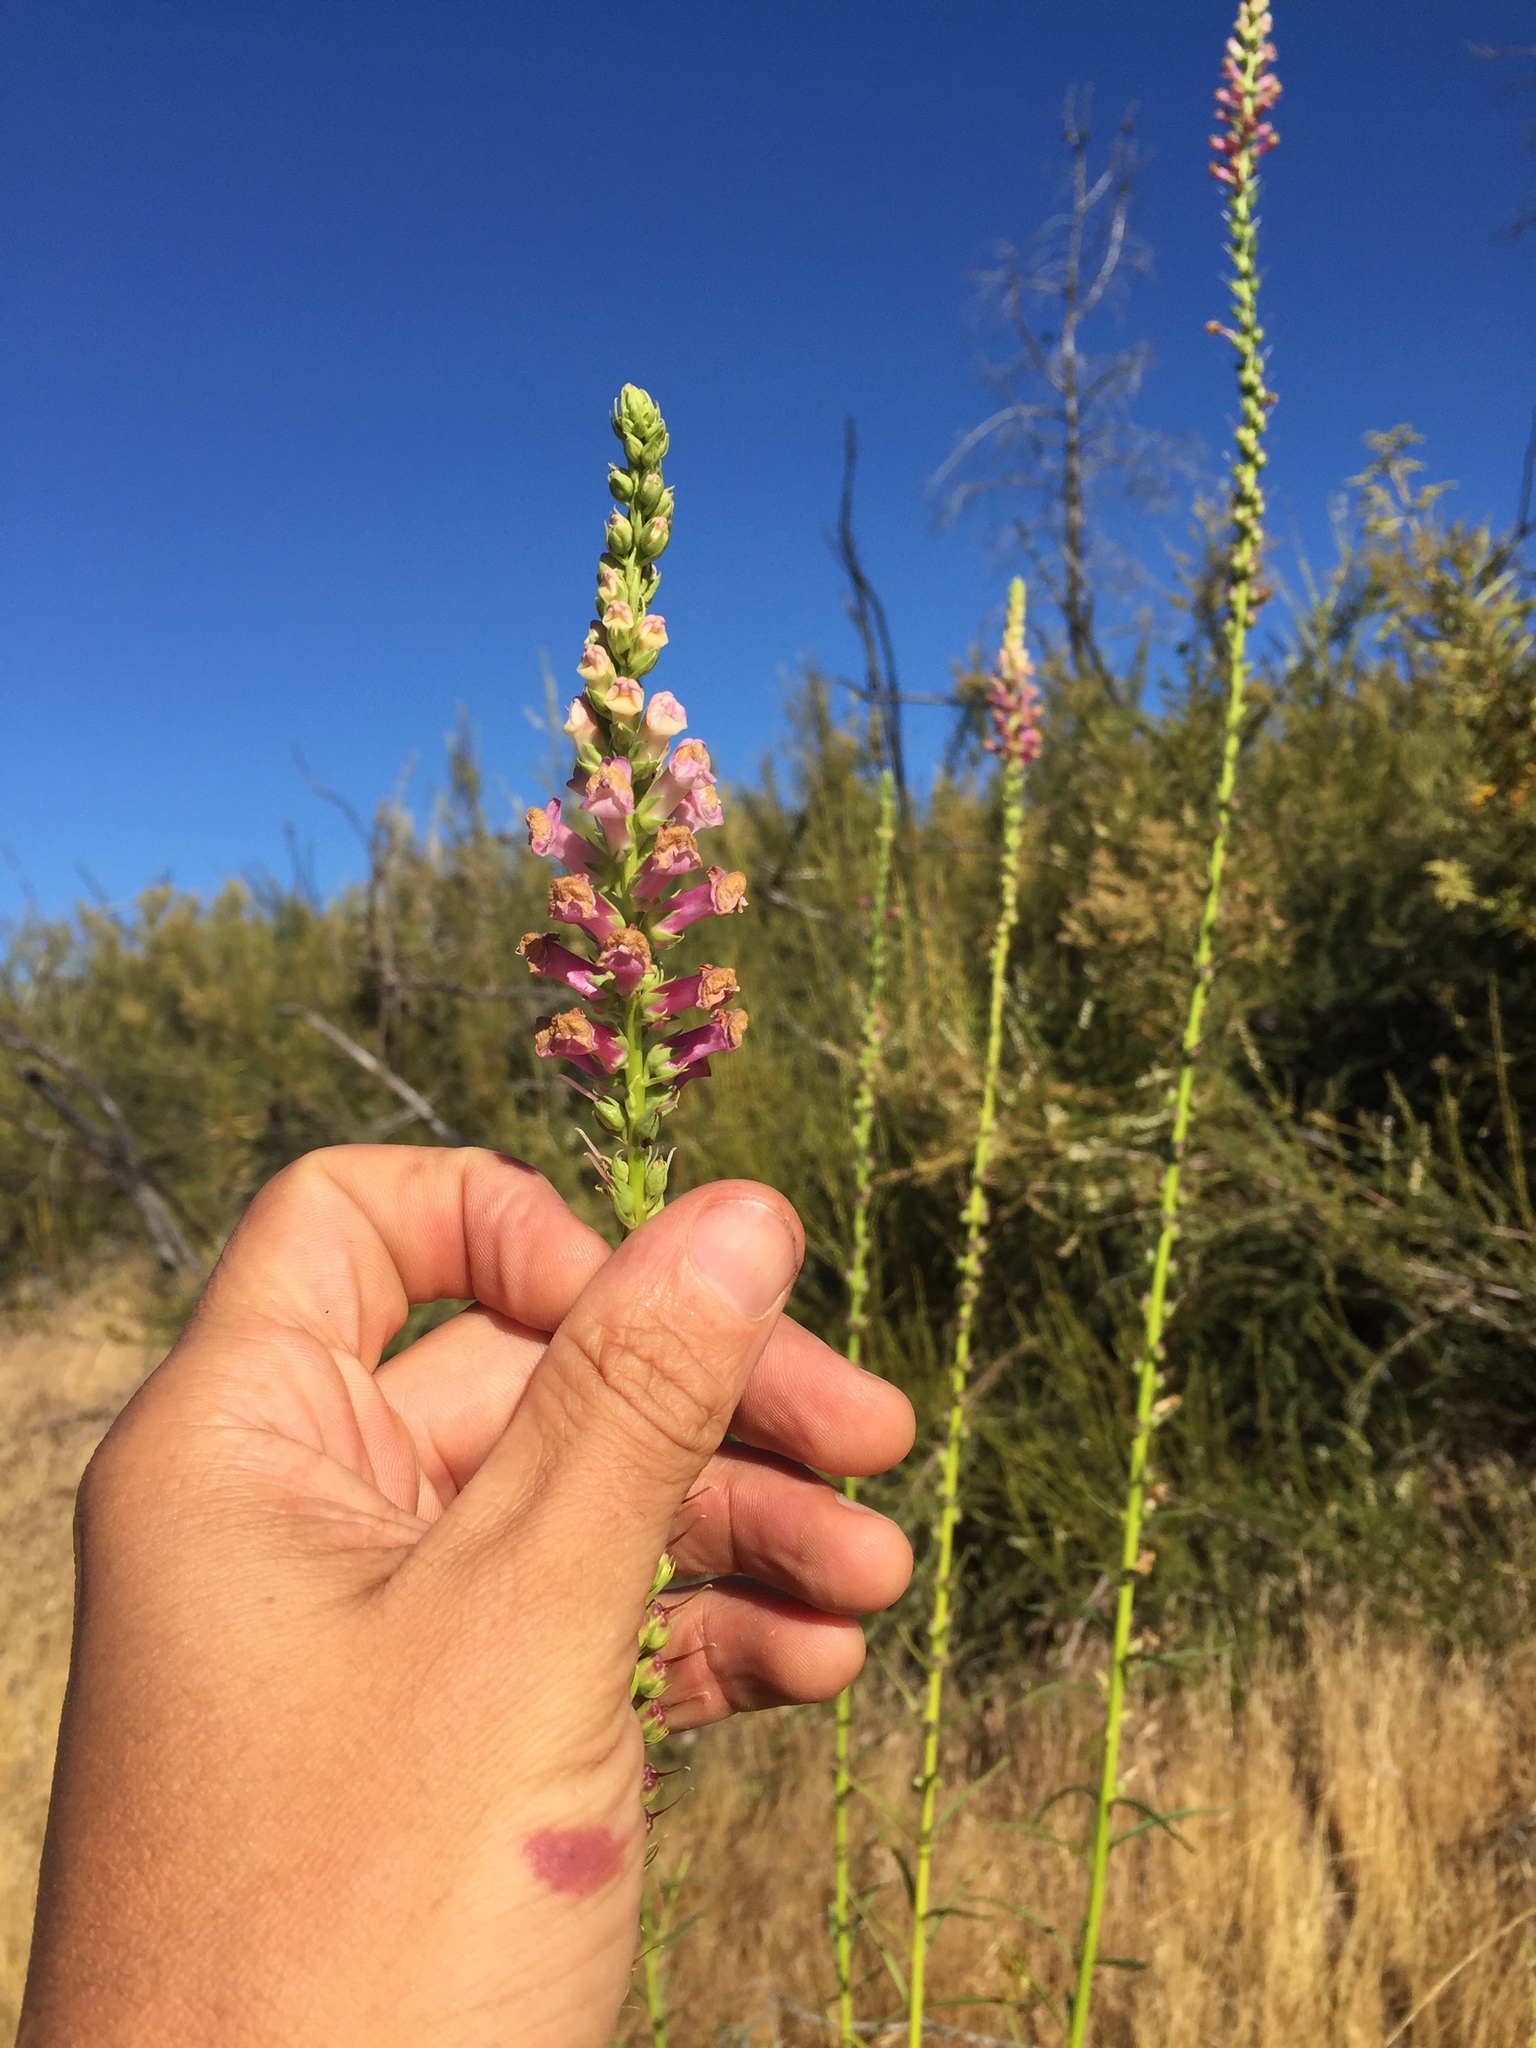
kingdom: Plantae
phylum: Tracheophyta
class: Magnoliopsida
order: Lamiales
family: Plantaginaceae
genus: Sairocarpus
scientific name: Sairocarpus virga
